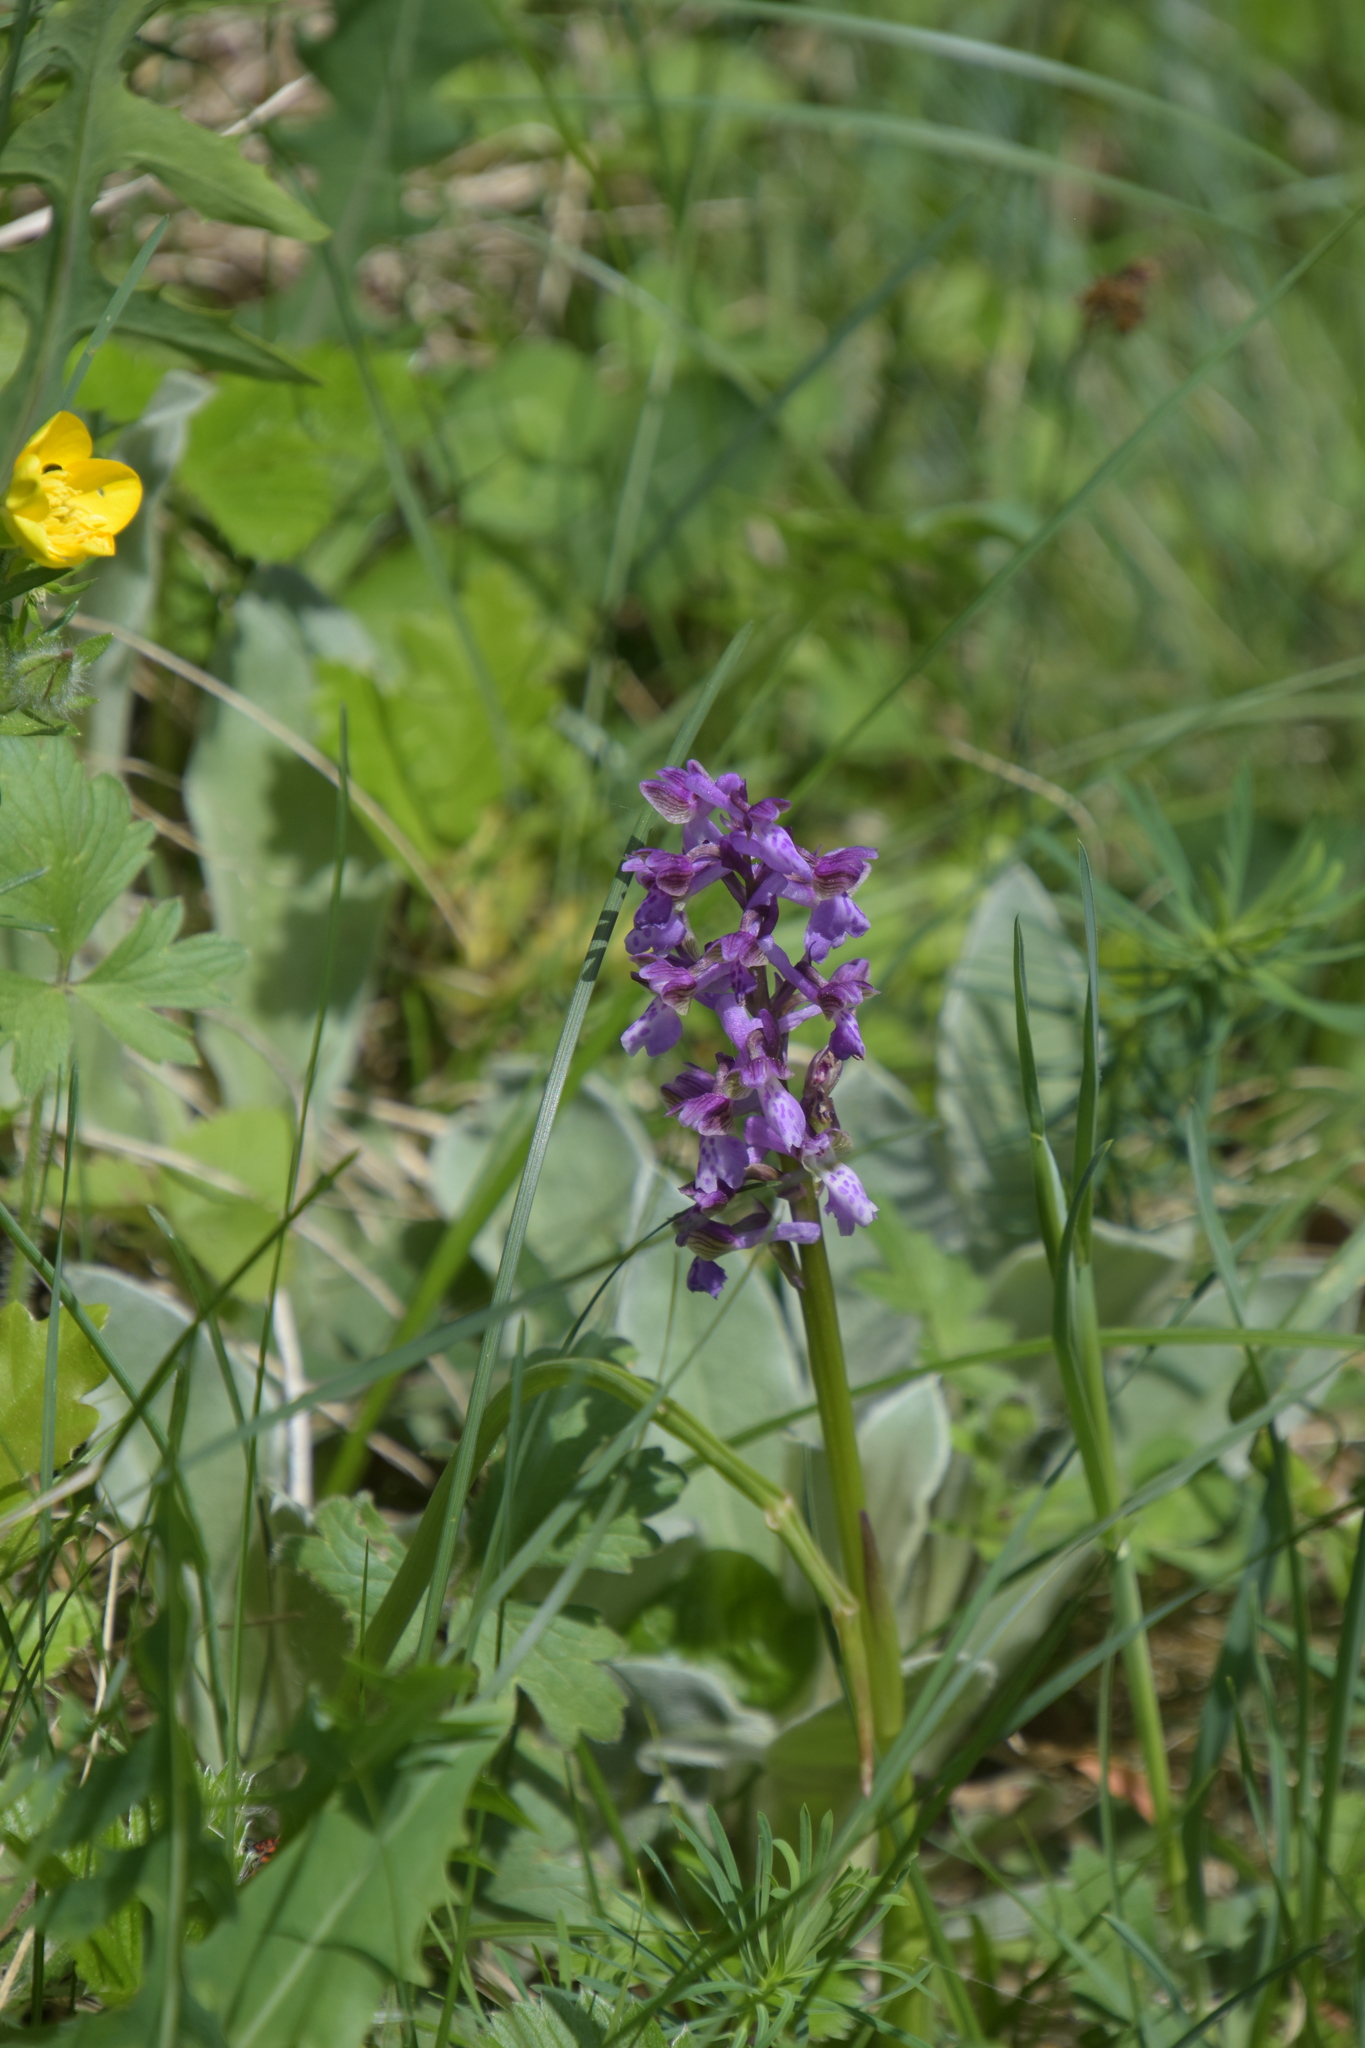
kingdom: Plantae
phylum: Tracheophyta
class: Liliopsida
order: Asparagales
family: Orchidaceae
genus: Anacamptis
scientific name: Anacamptis morio
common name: Green-winged orchid
